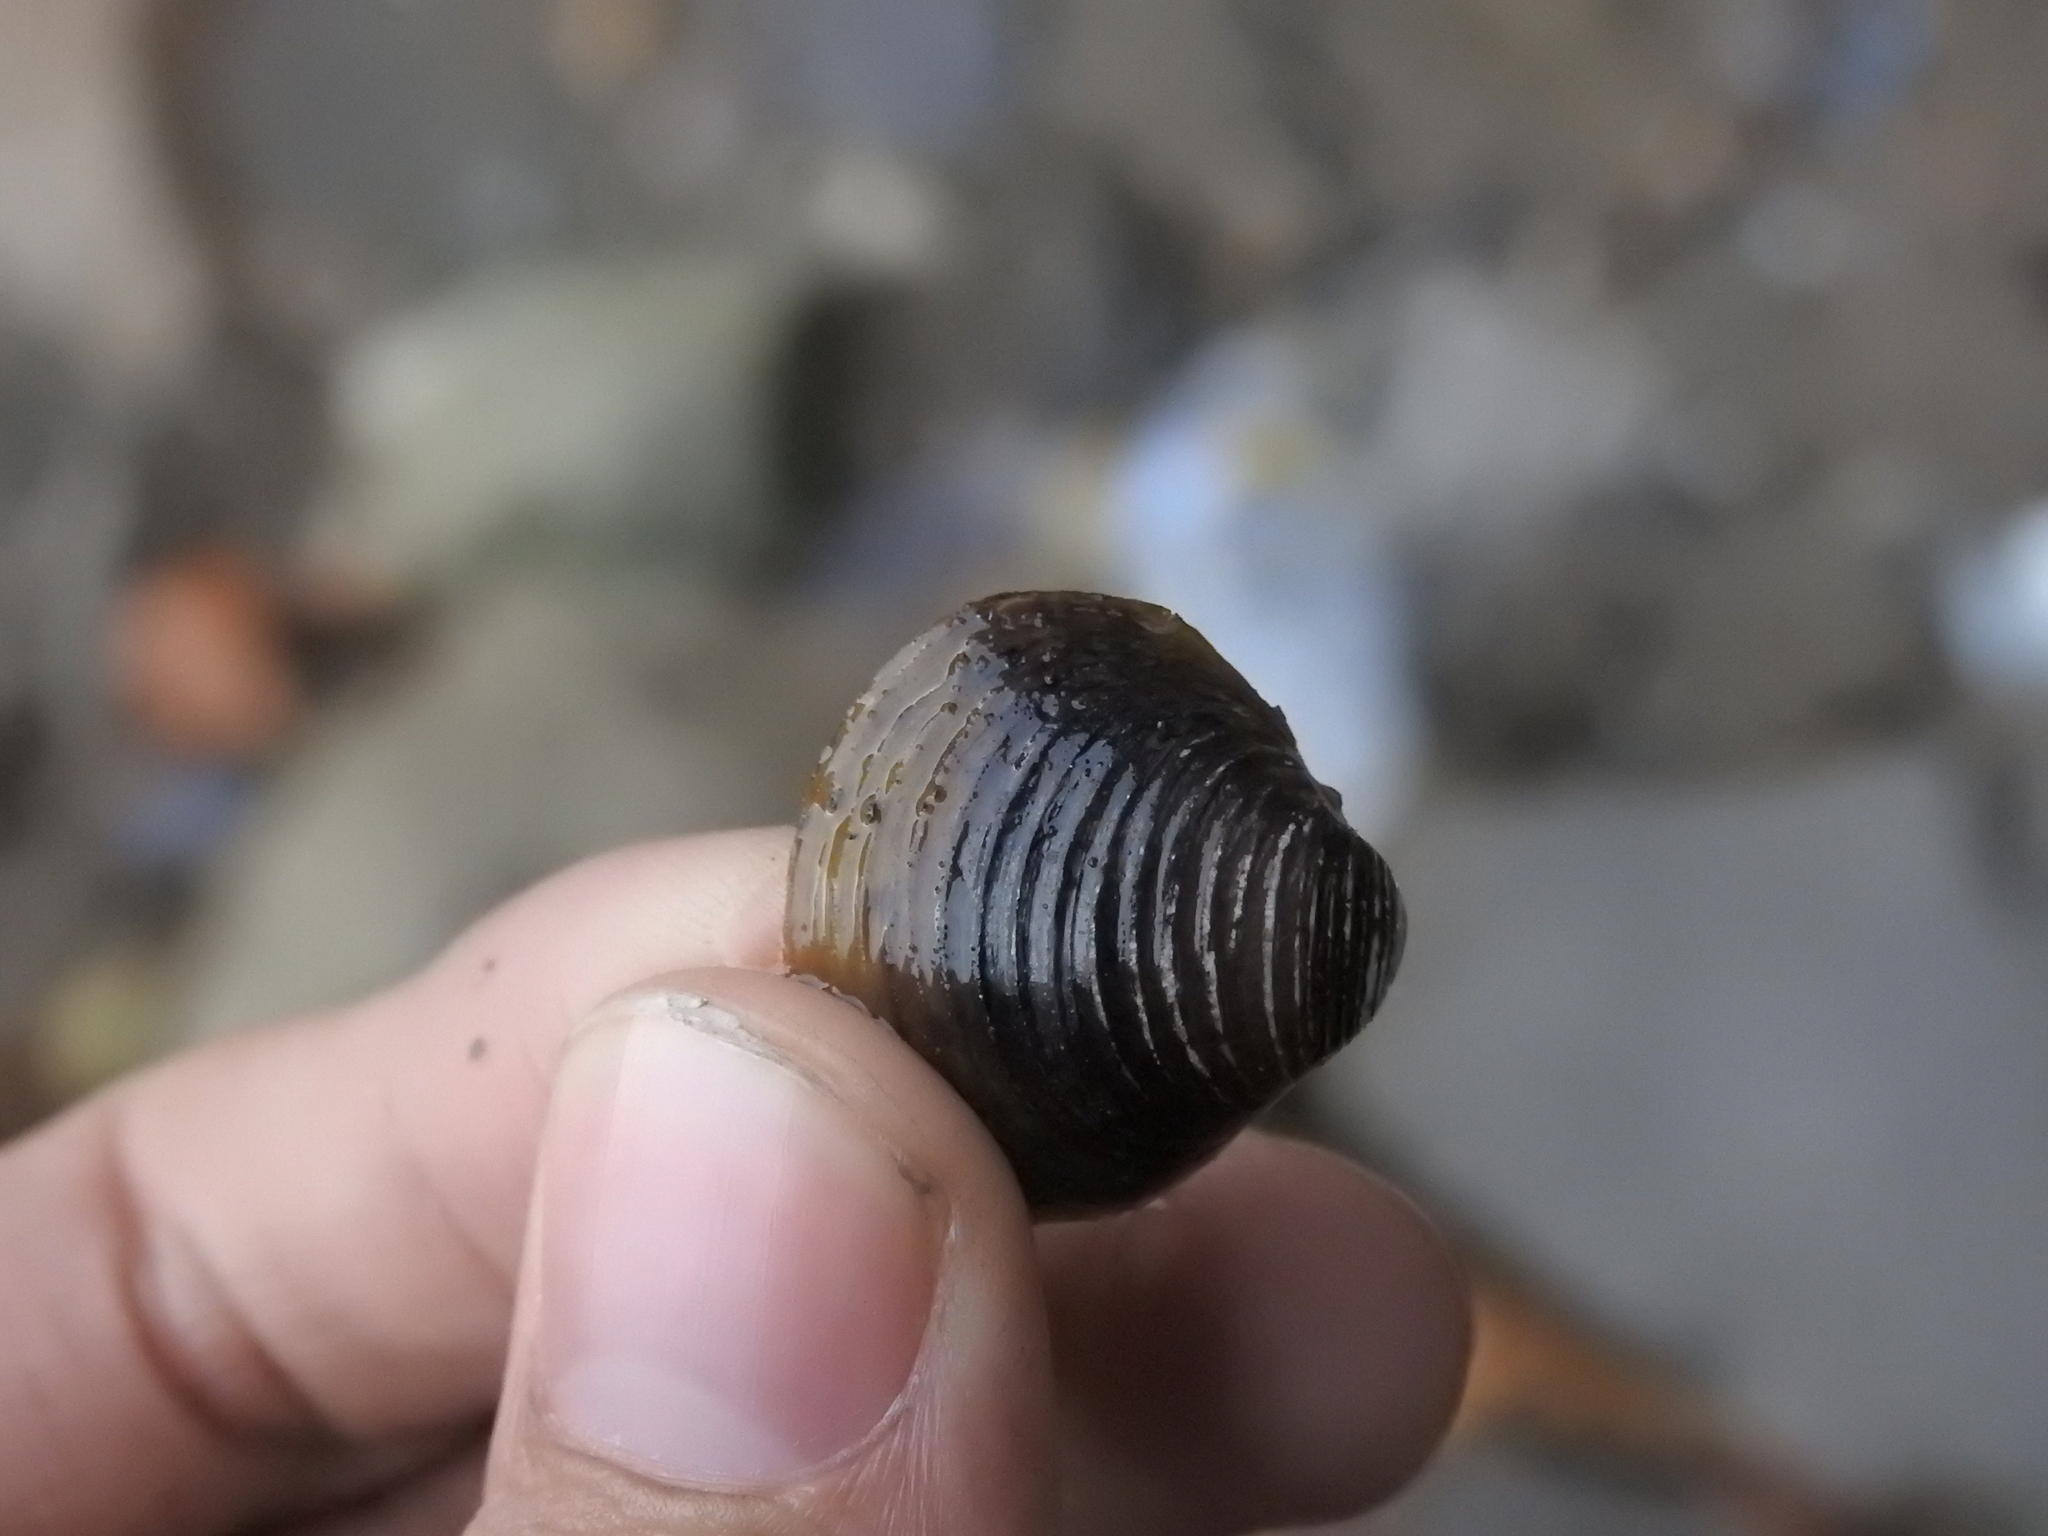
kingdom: Animalia
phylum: Mollusca
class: Bivalvia
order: Venerida
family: Cyrenidae
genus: Corbicula
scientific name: Corbicula fluminea
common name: Asian clam
